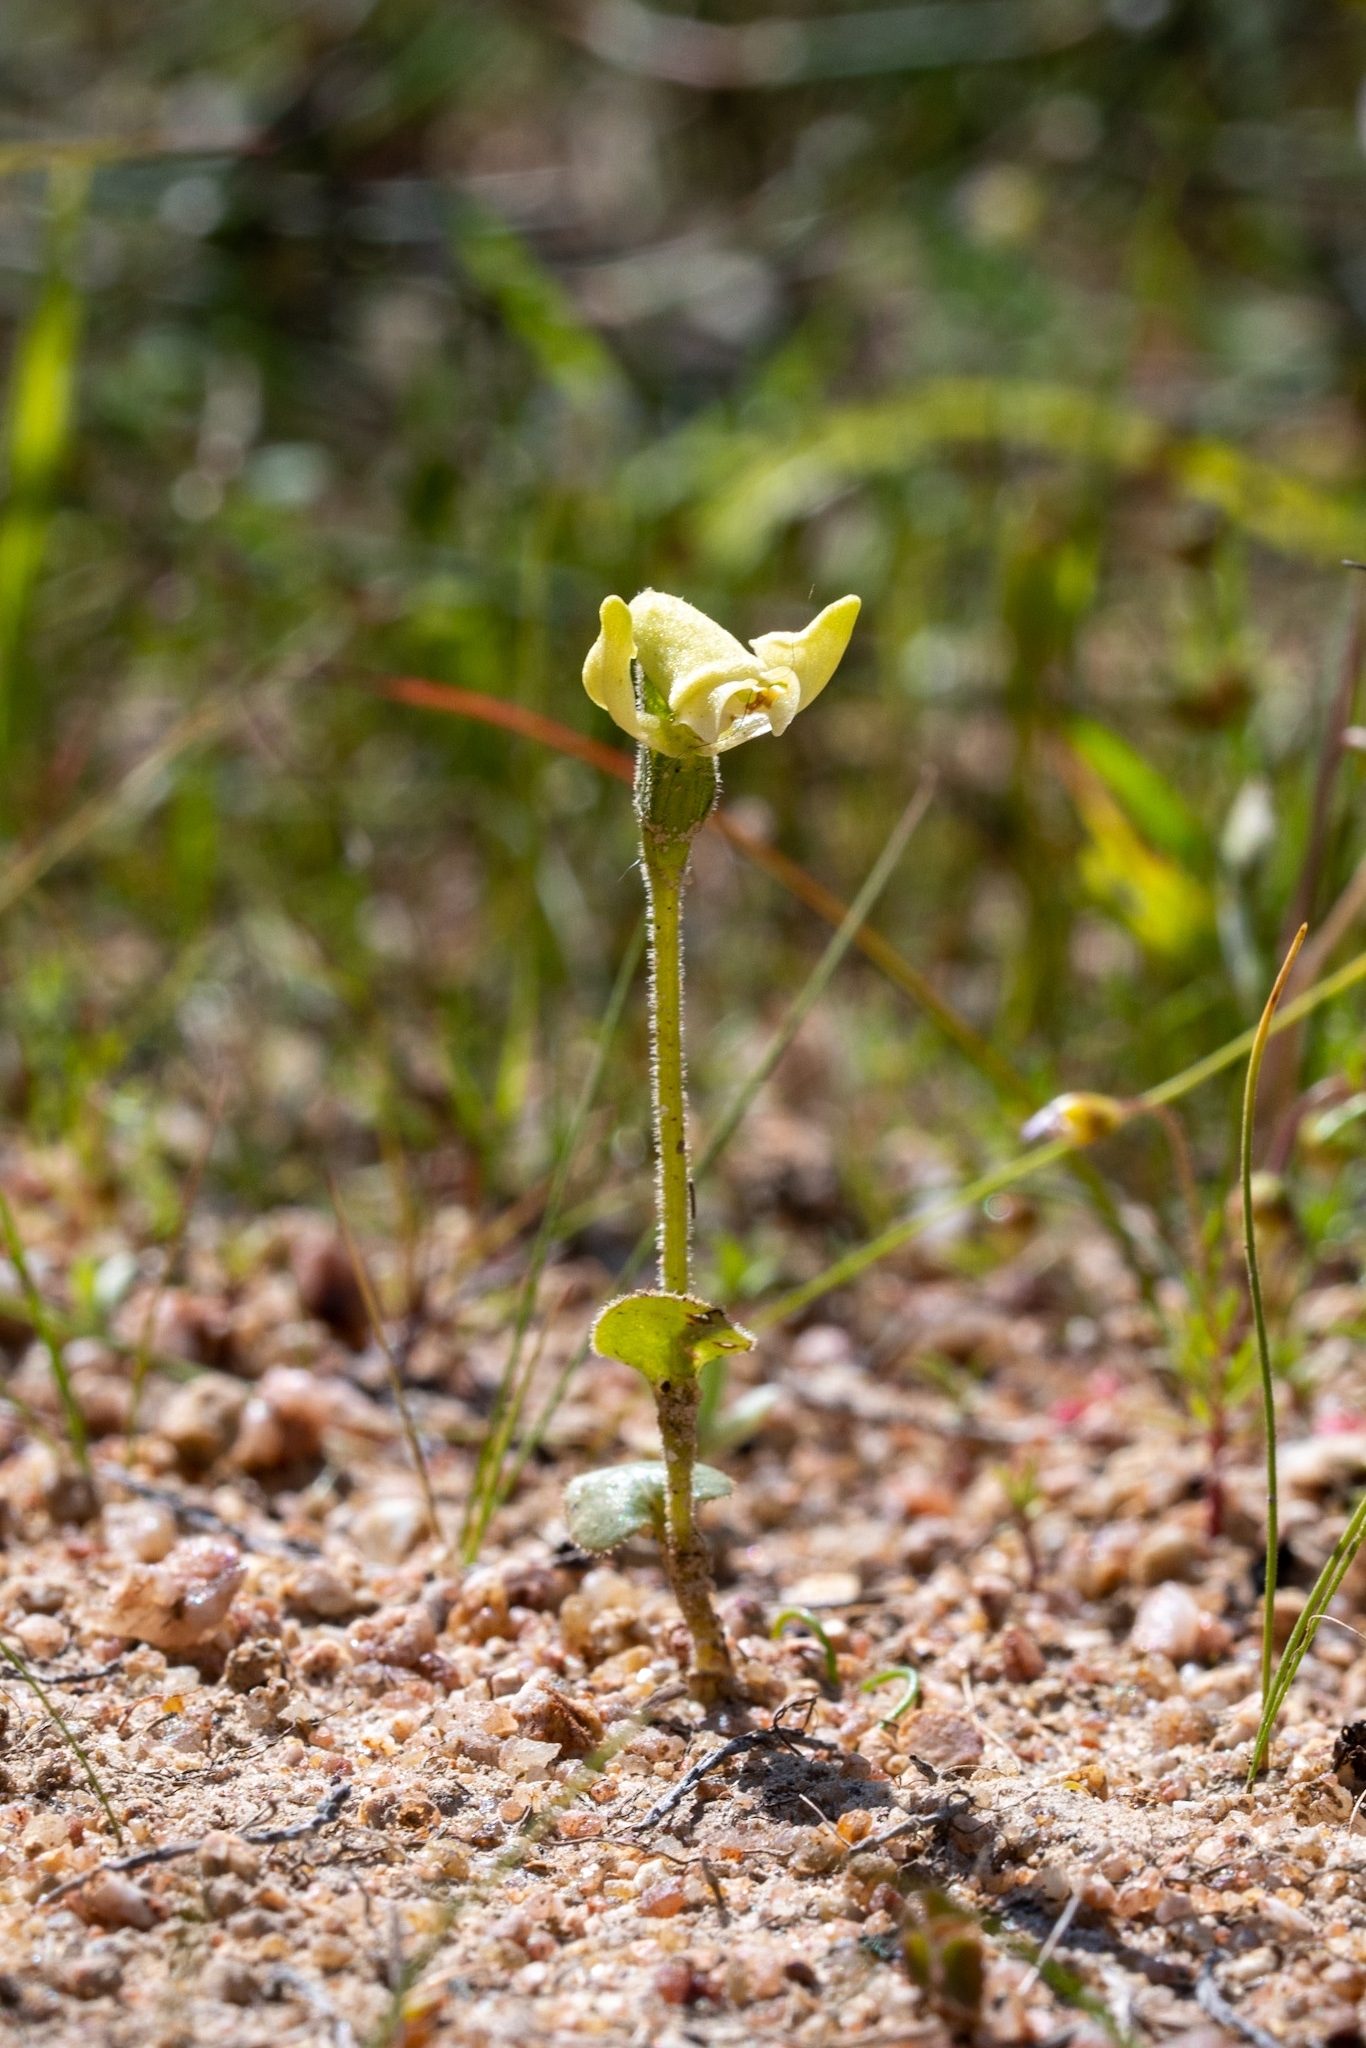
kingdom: Plantae
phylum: Tracheophyta
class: Liliopsida
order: Asparagales
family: Orchidaceae
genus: Disperis
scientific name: Disperis villosa
